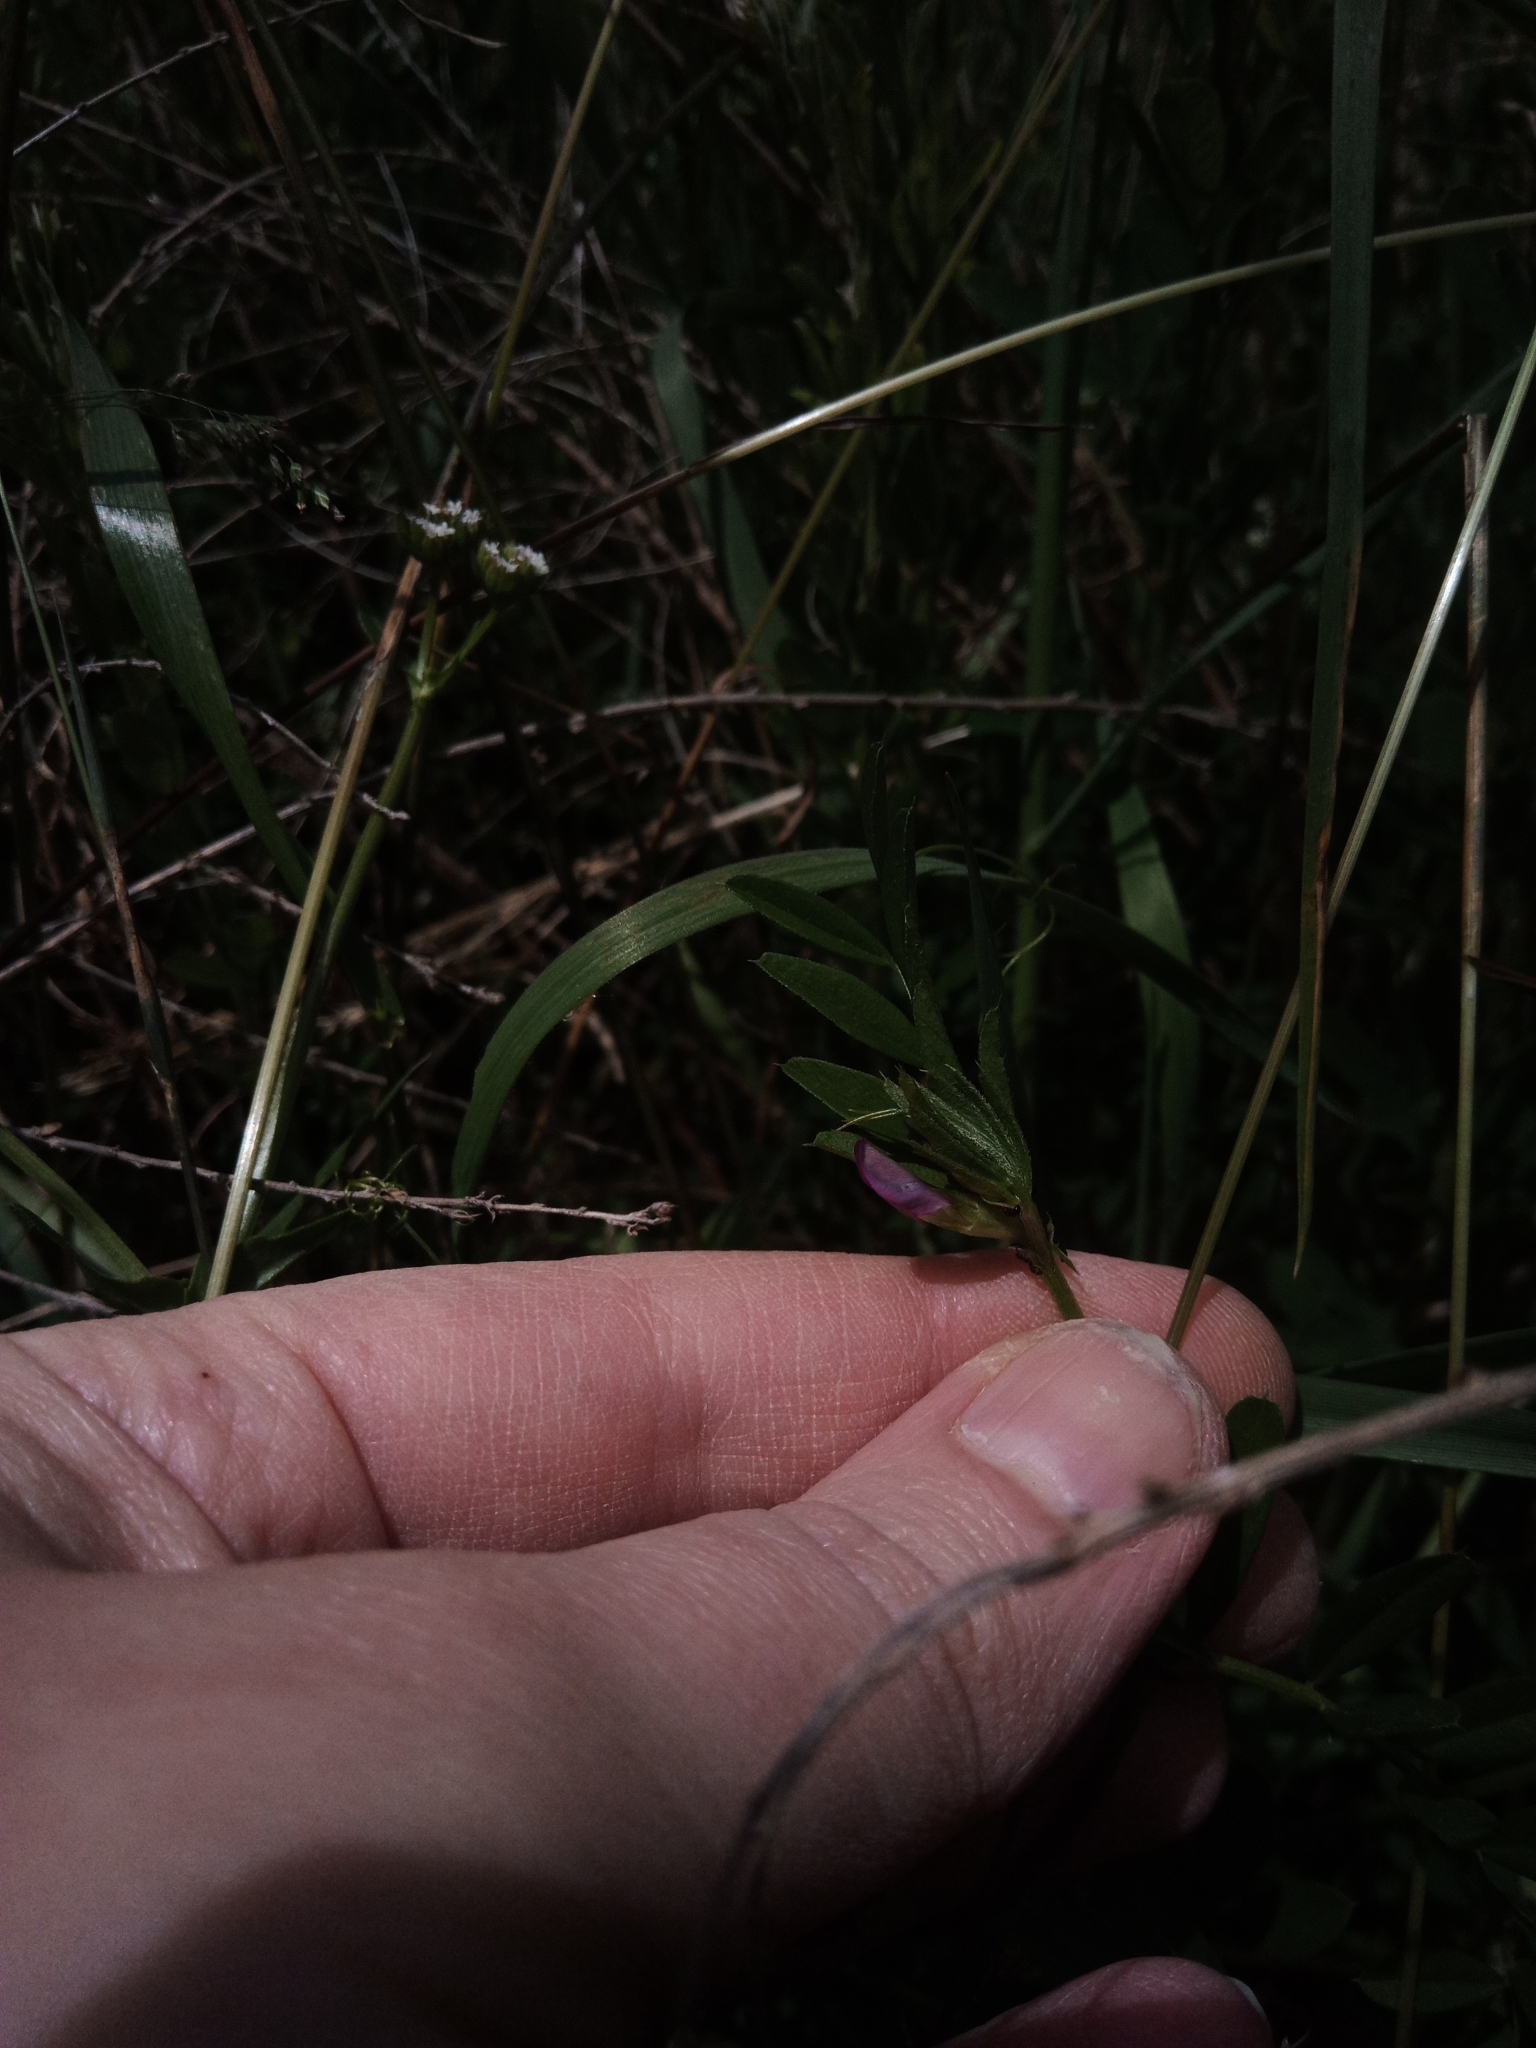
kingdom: Plantae
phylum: Tracheophyta
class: Magnoliopsida
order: Fabales
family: Fabaceae
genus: Vicia
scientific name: Vicia sativa
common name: Garden vetch
